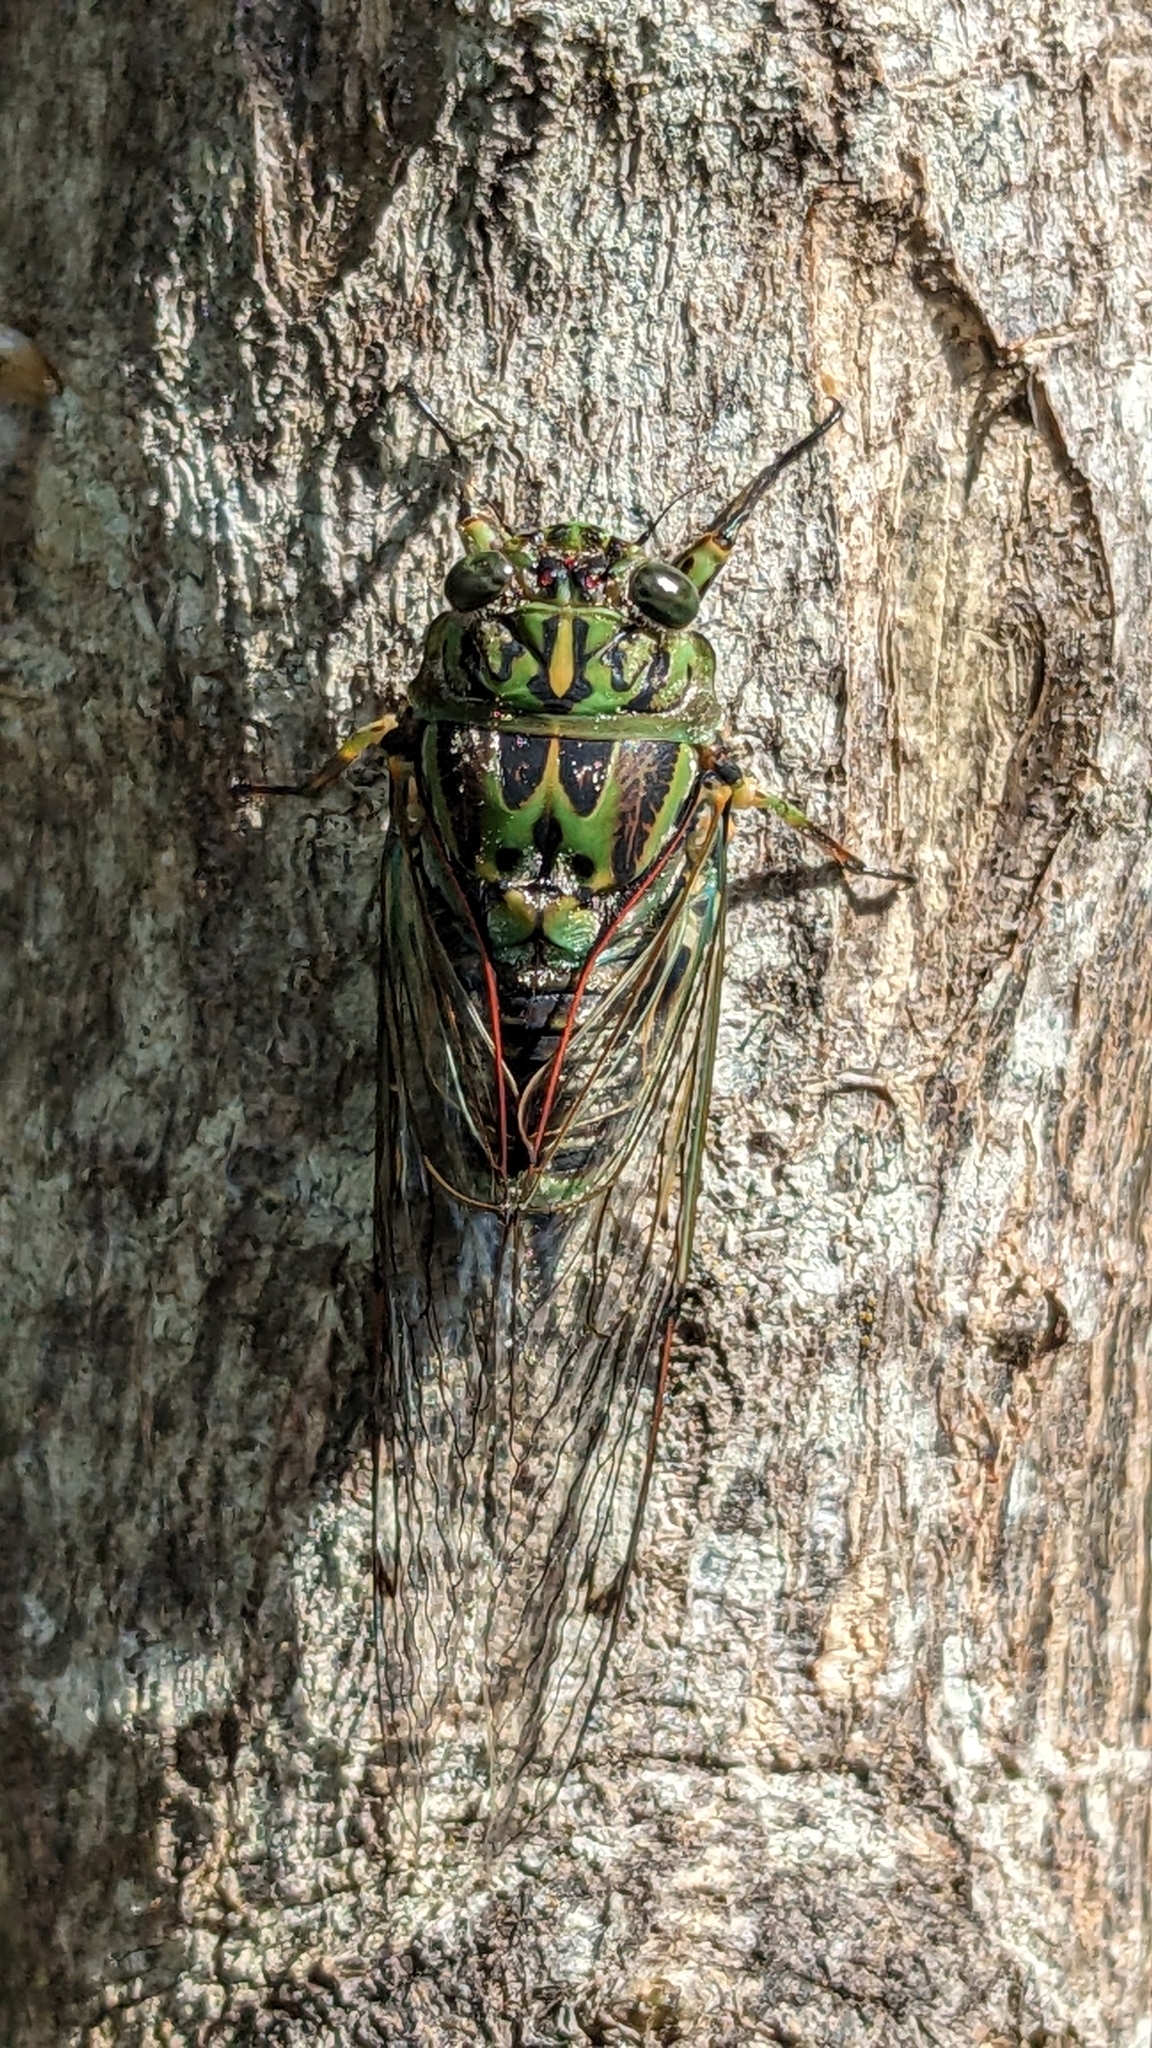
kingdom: Animalia
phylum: Arthropoda
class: Insecta
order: Hemiptera
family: Cicadidae
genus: Amphipsalta
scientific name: Amphipsalta zelandica
